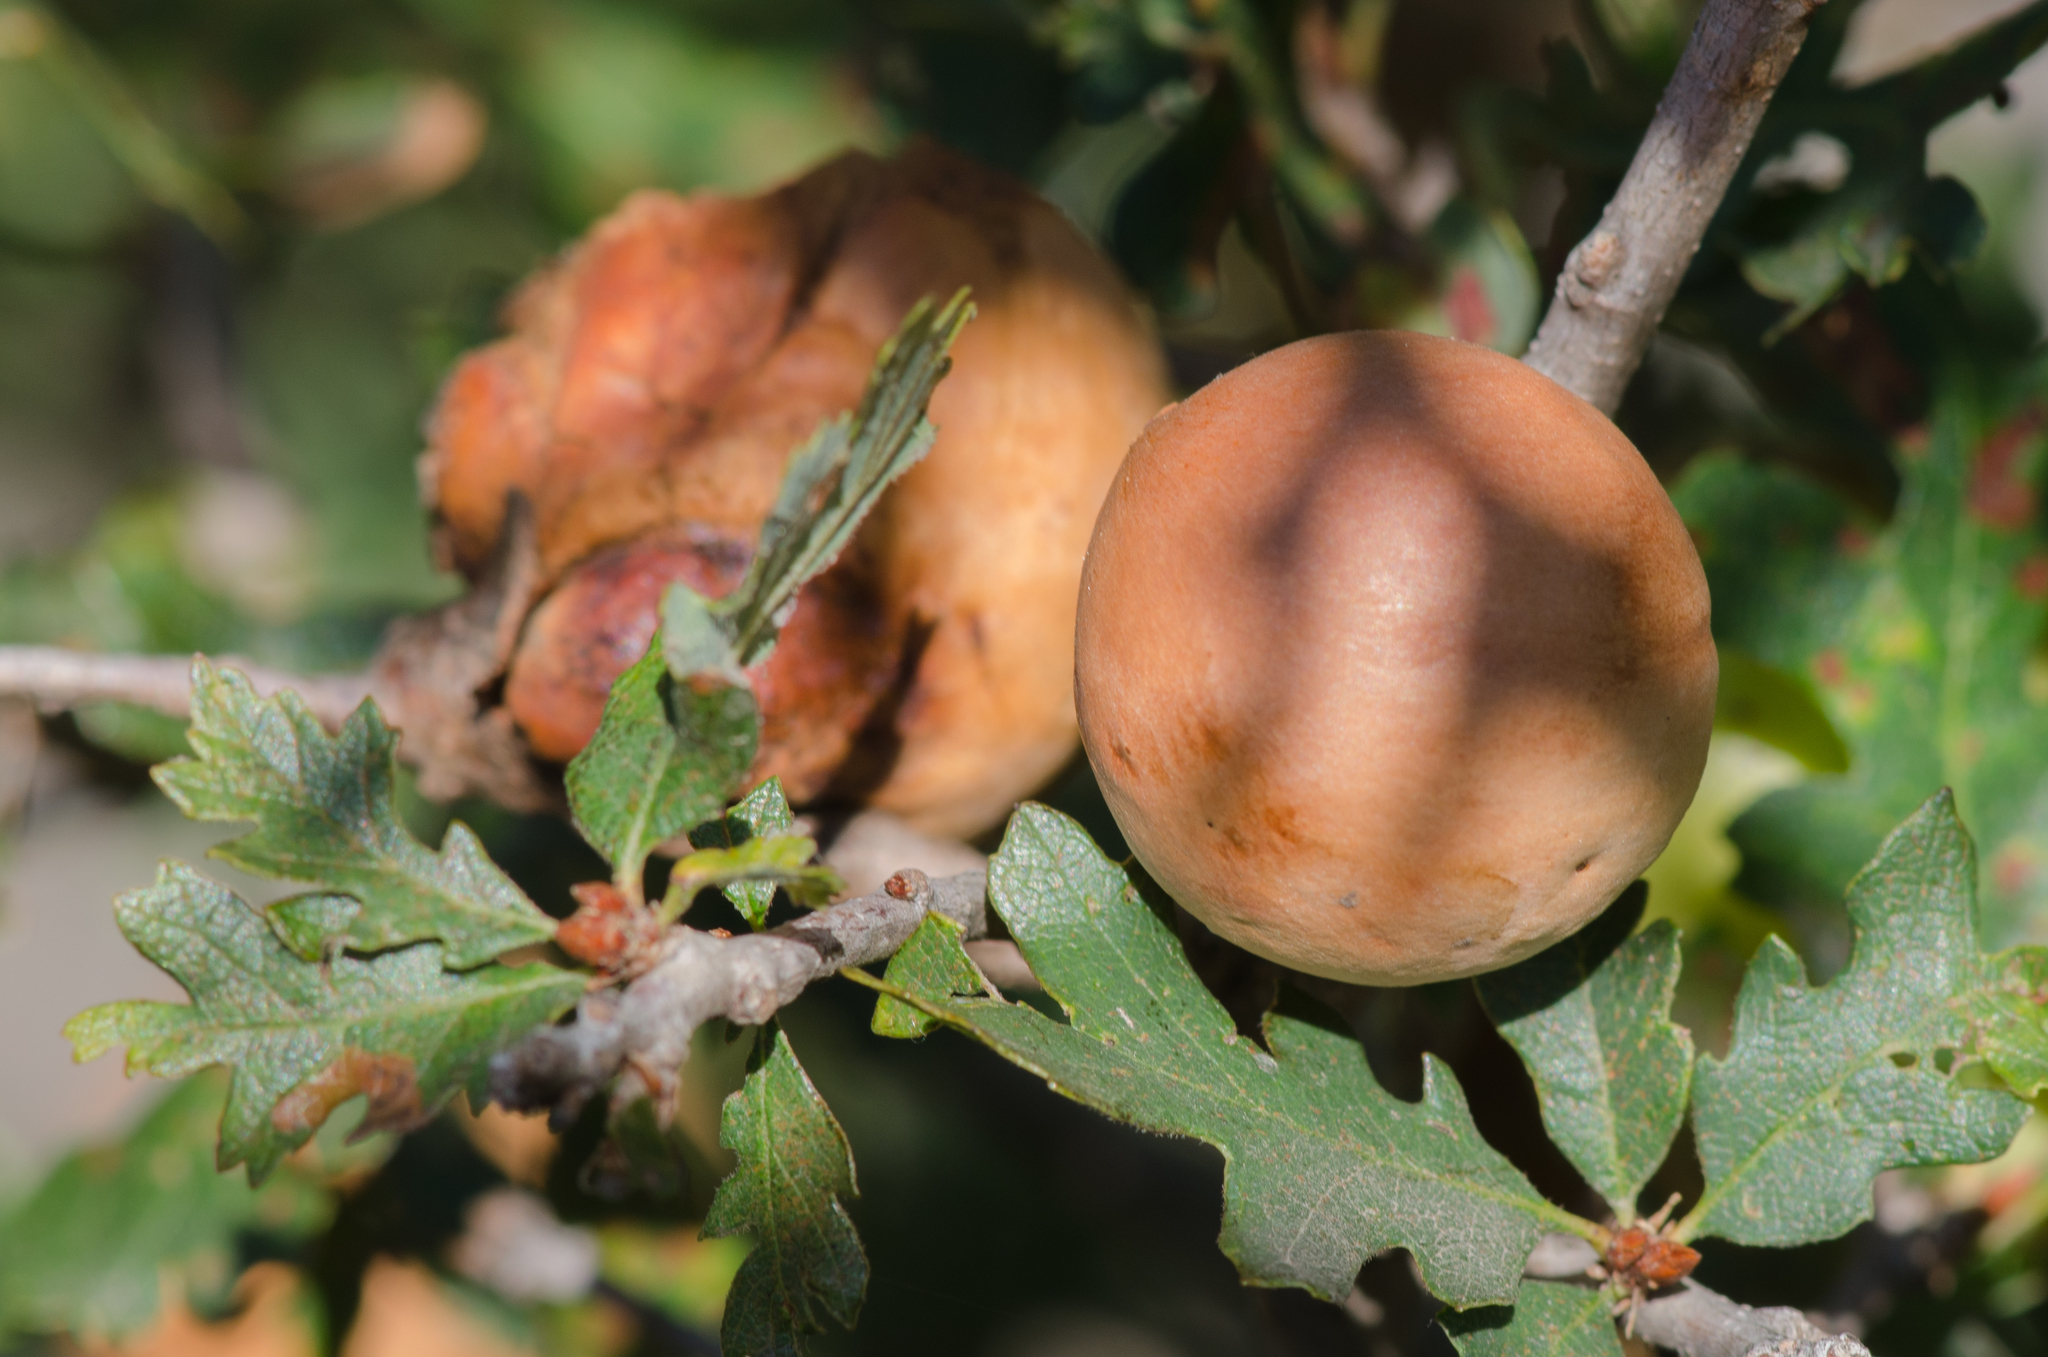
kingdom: Animalia
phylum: Arthropoda
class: Insecta
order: Hymenoptera
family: Cynipidae
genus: Andricus
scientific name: Andricus quercuscalifornicus
